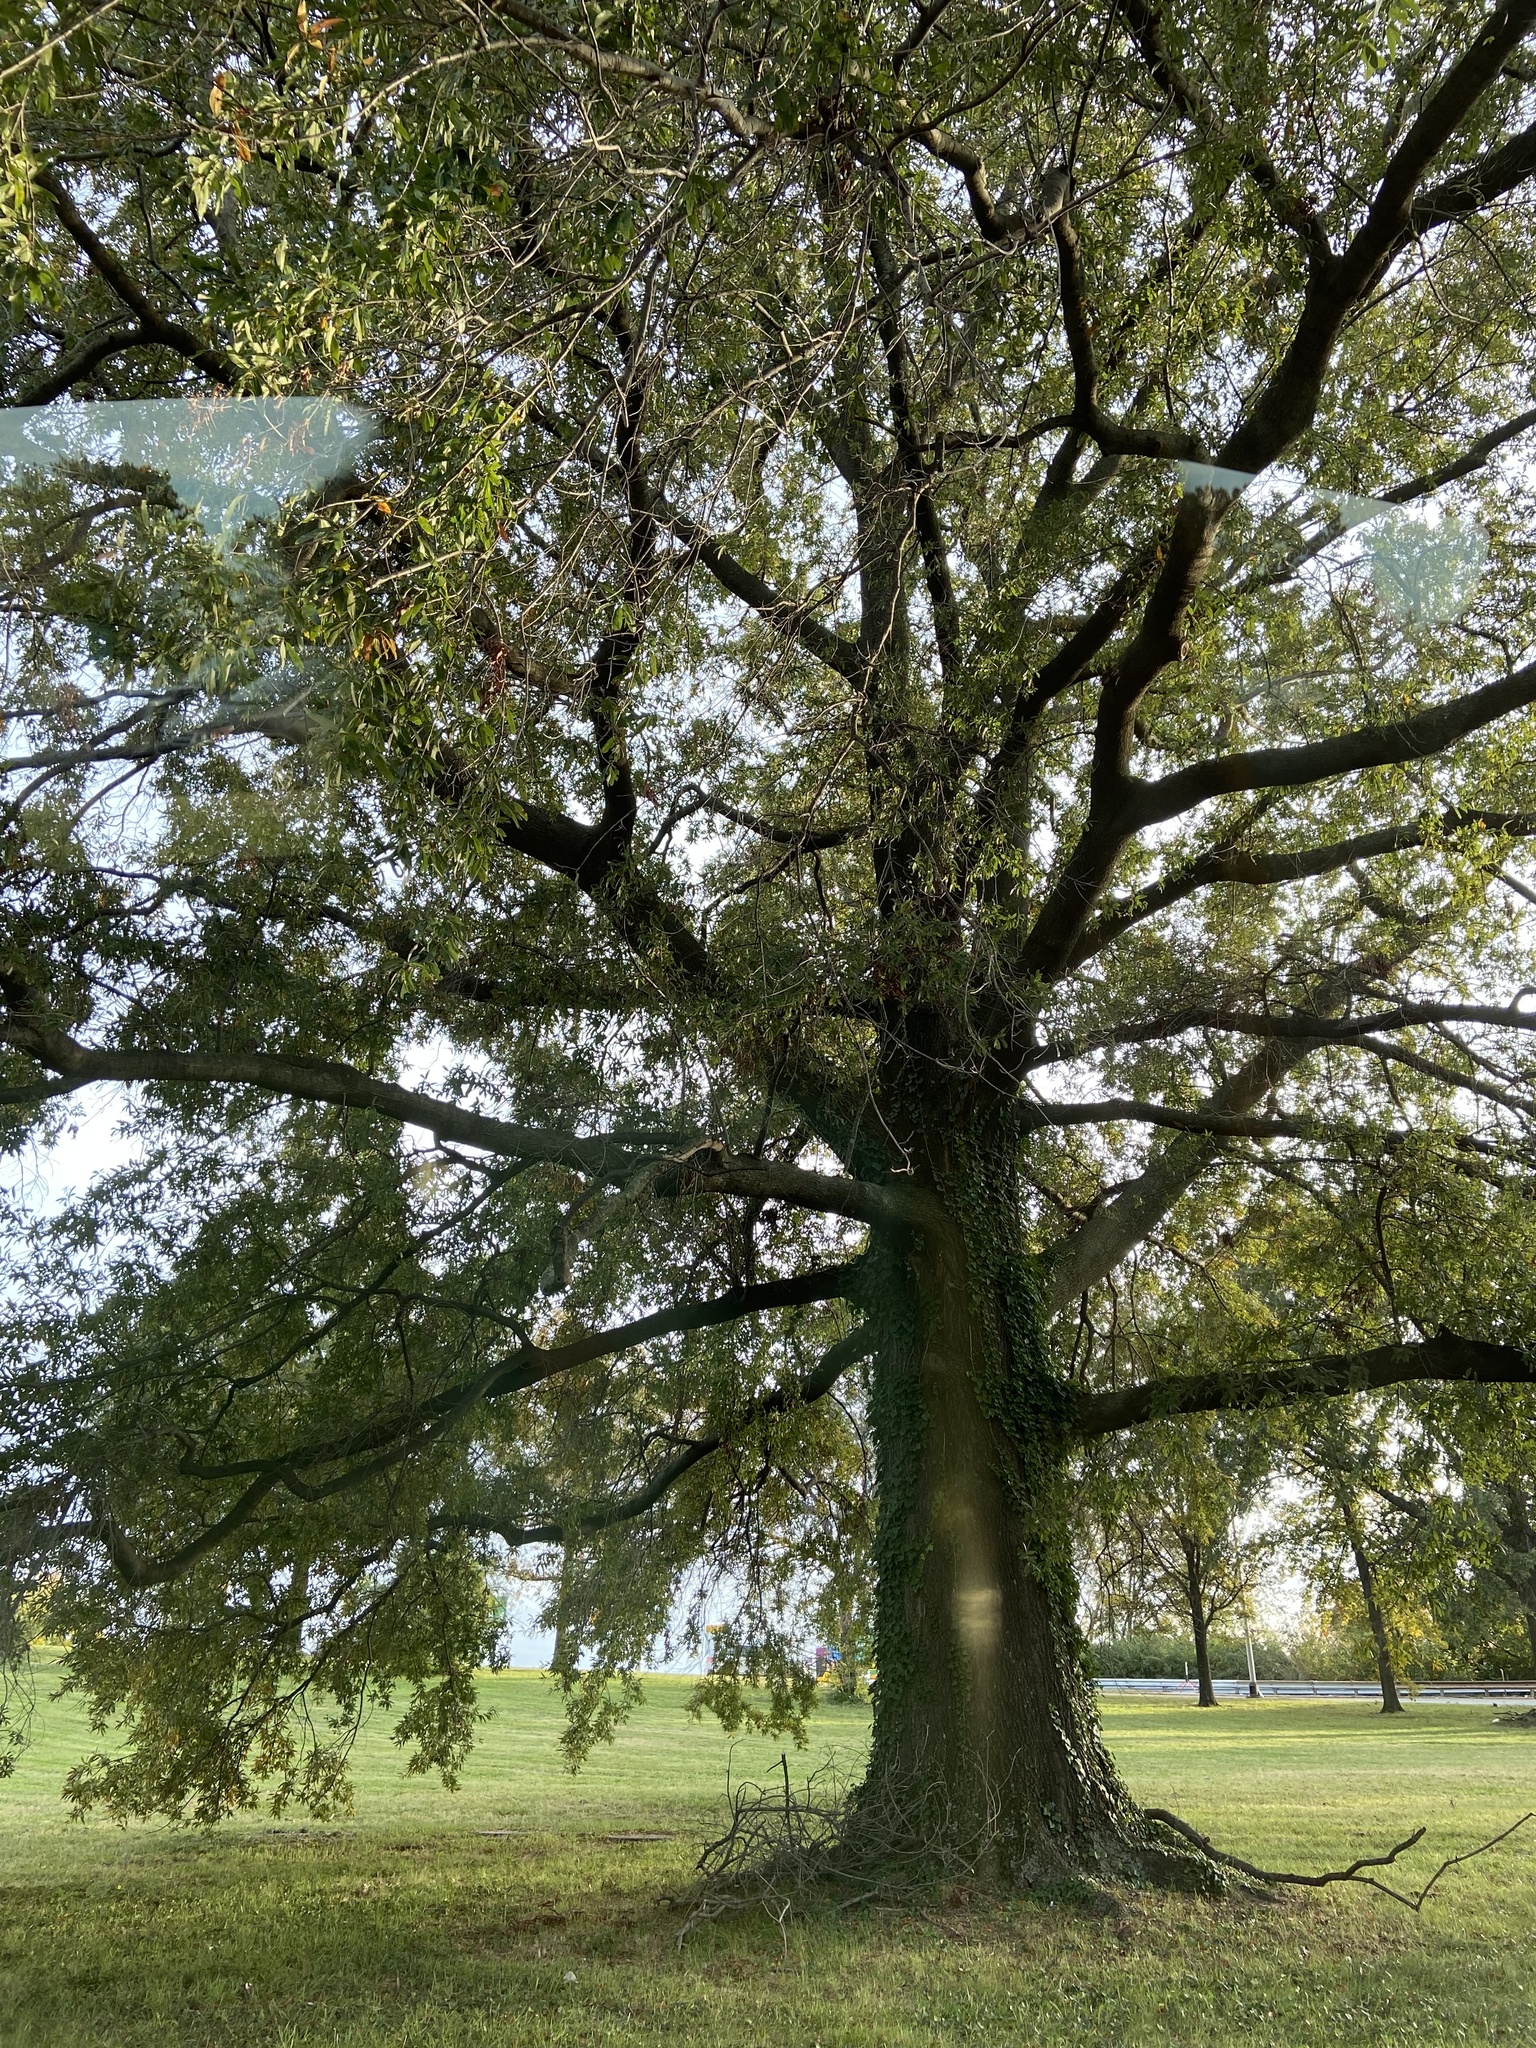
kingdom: Plantae
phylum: Tracheophyta
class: Magnoliopsida
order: Fagales
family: Fagaceae
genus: Quercus
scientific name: Quercus phellos
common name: Willow oak
